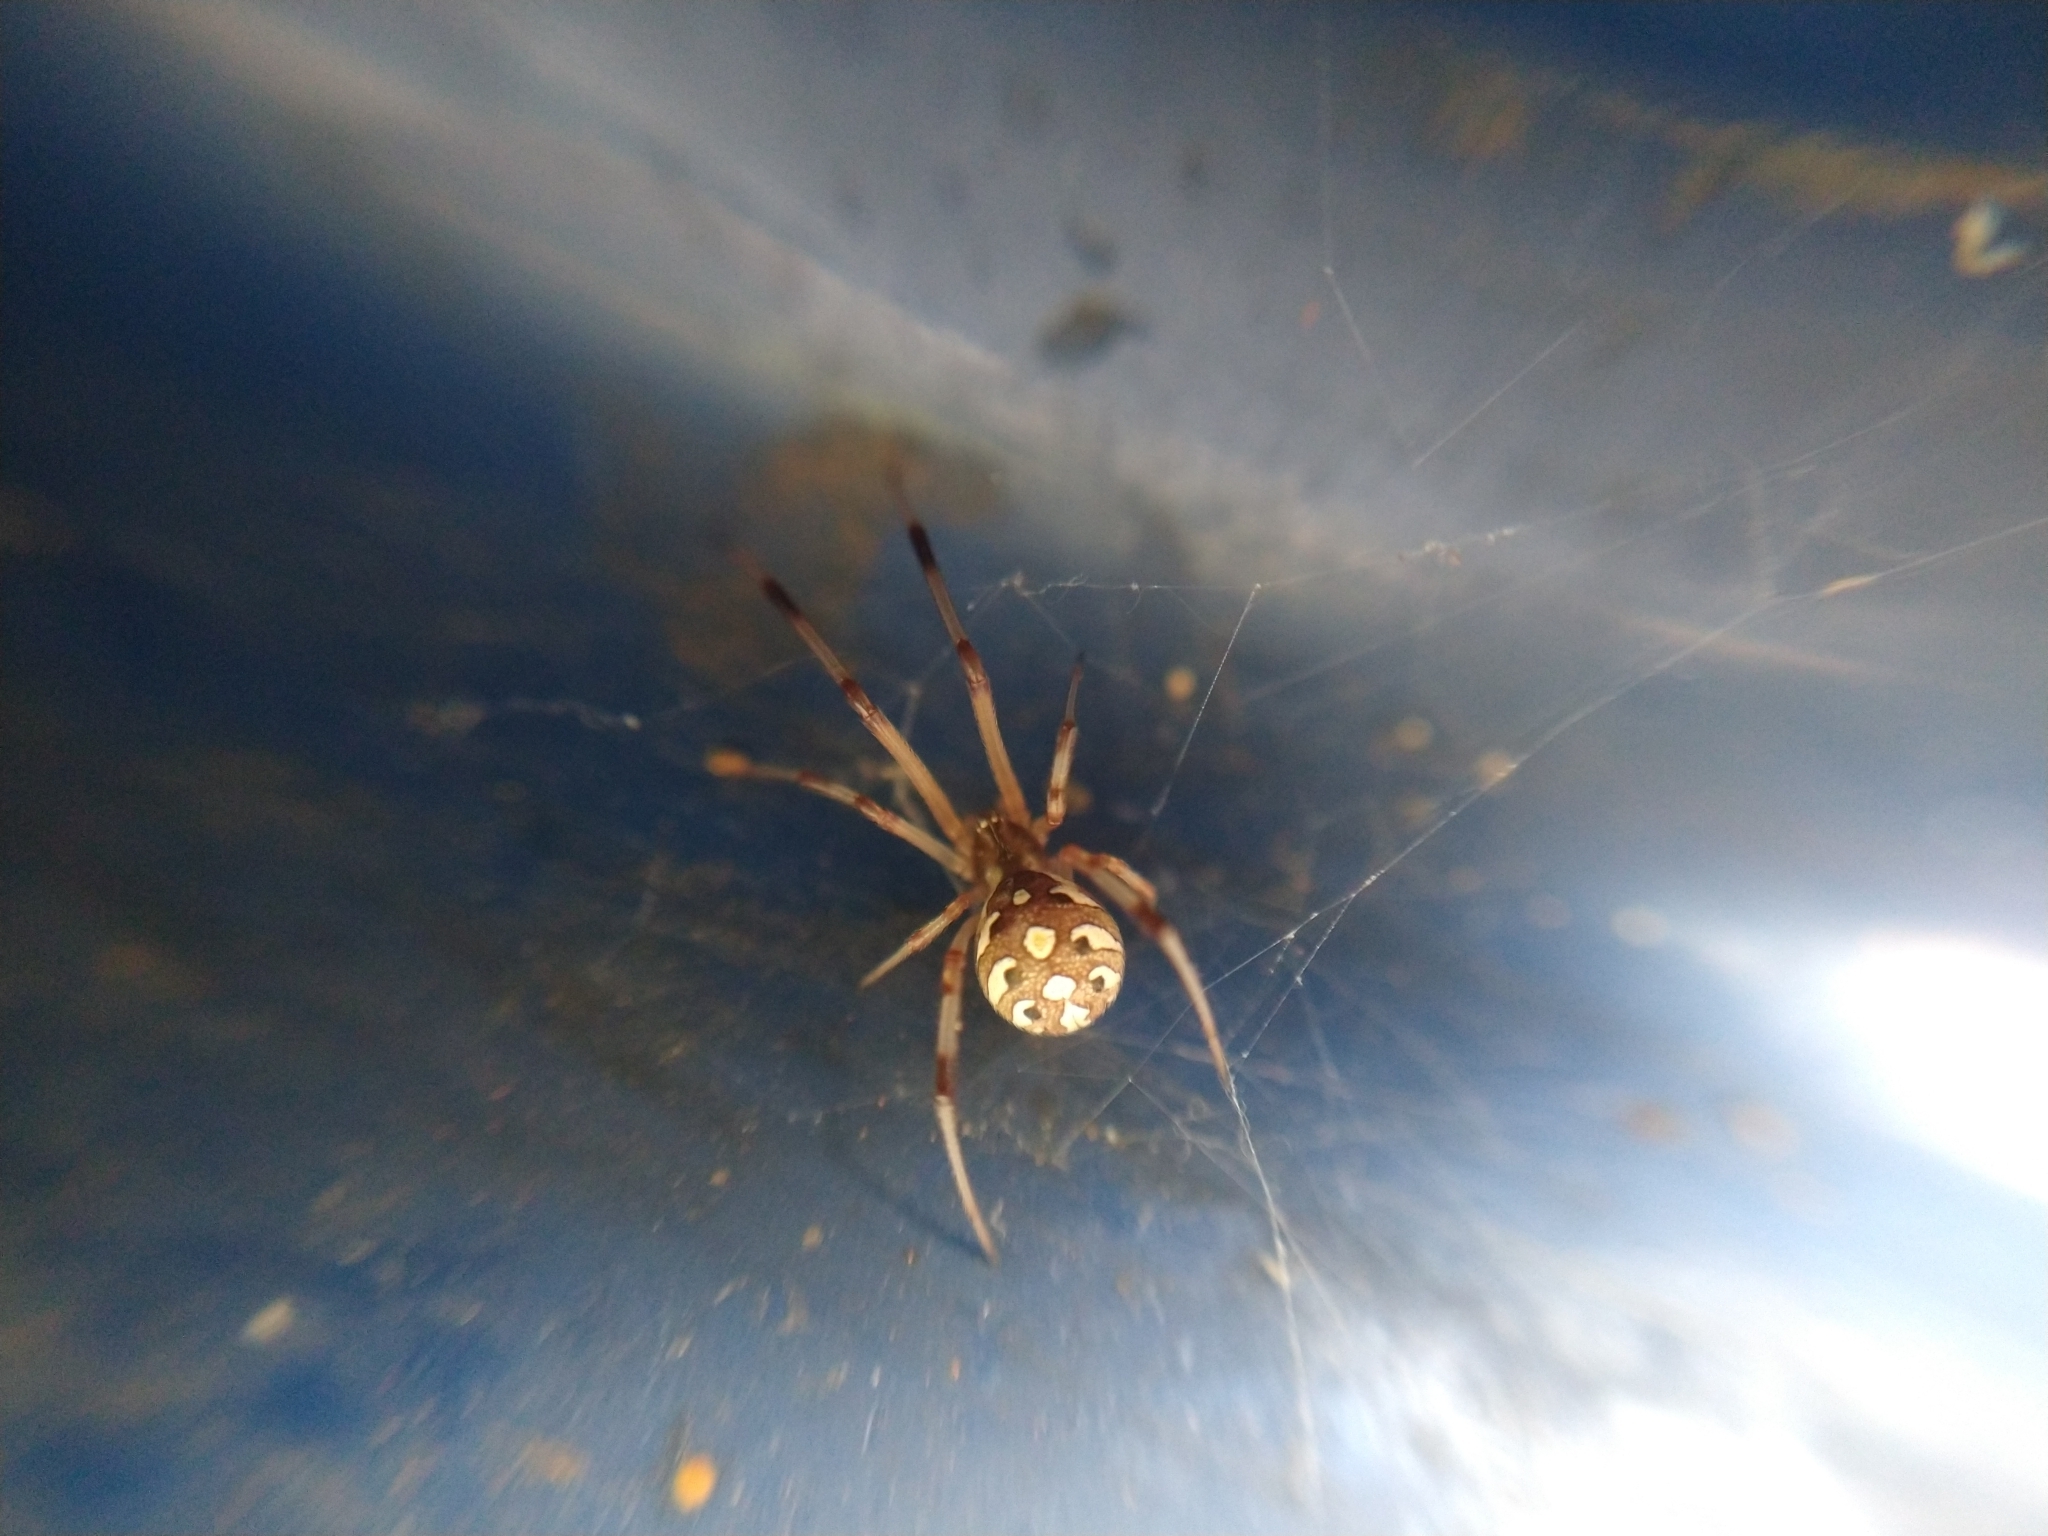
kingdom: Animalia
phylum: Arthropoda
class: Arachnida
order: Araneae
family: Theridiidae
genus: Latrodectus
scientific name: Latrodectus geometricus
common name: Brown widow spider
